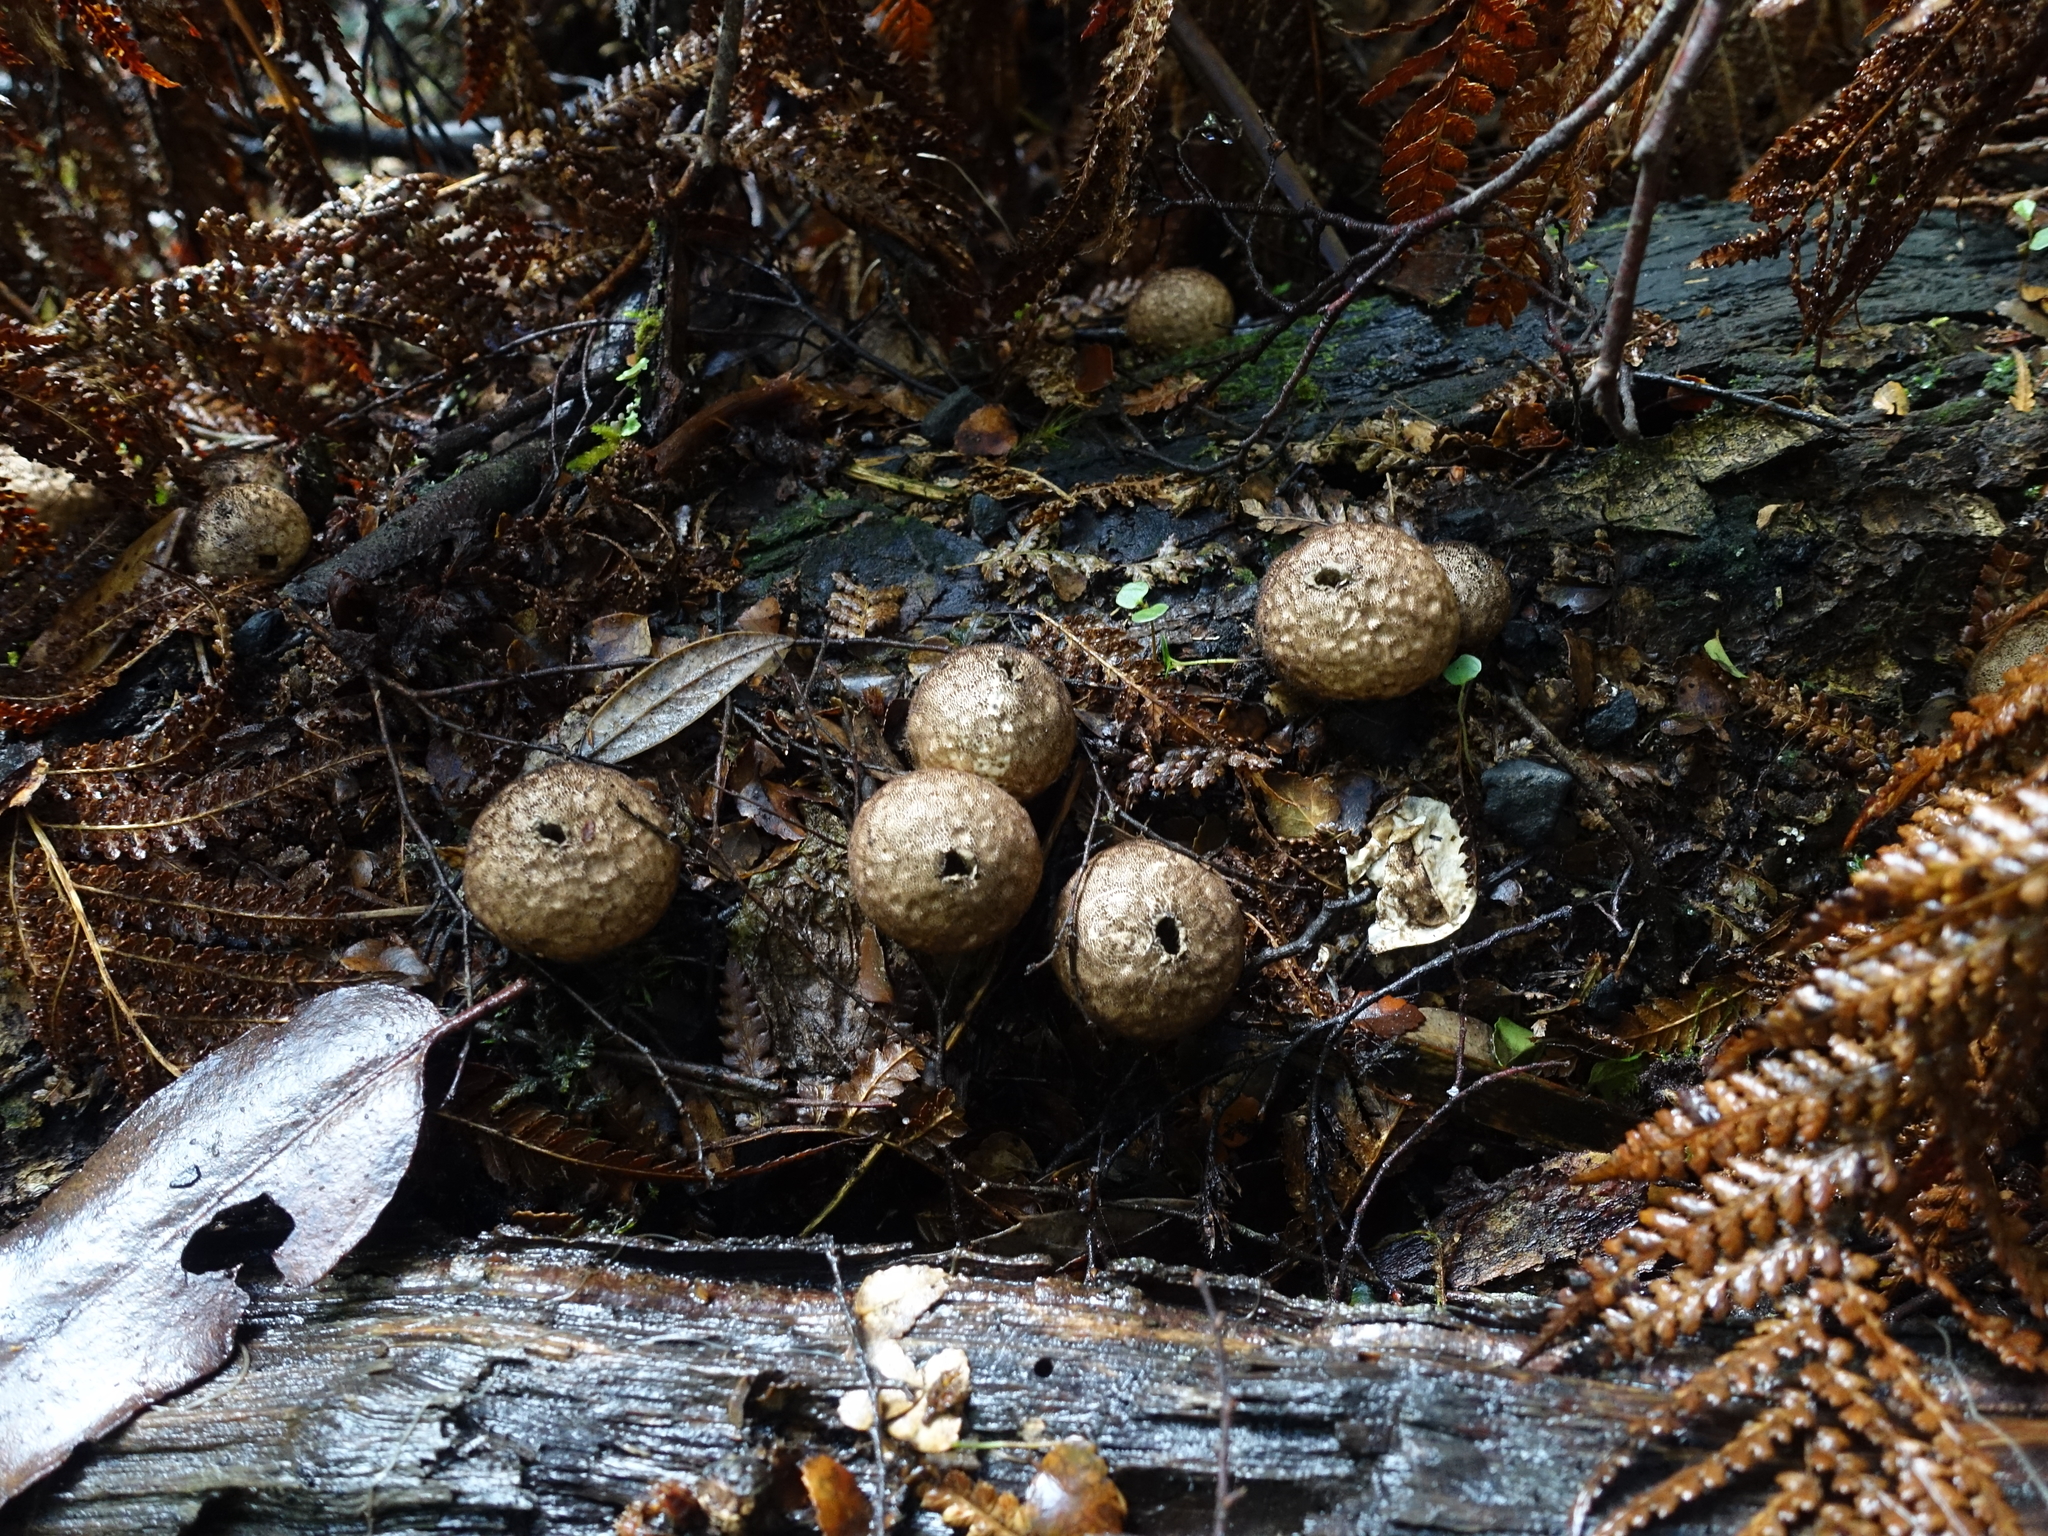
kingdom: Fungi
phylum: Basidiomycota
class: Agaricomycetes
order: Agaricales
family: Lycoperdaceae
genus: Apioperdon
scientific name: Apioperdon pyriforme
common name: Pear-shaped puffball
